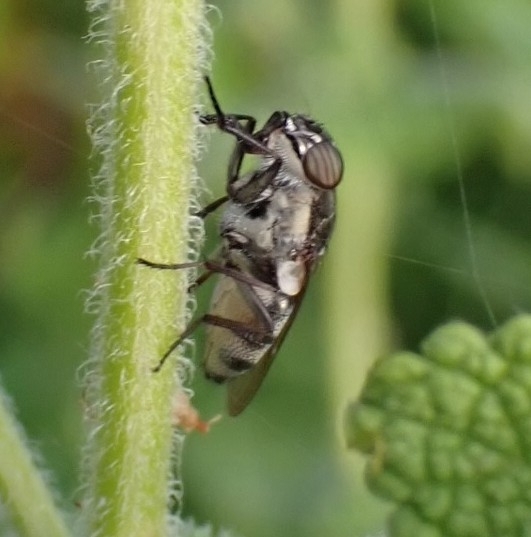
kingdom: Animalia
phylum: Arthropoda
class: Insecta
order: Diptera
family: Calliphoridae
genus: Stomorhina
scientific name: Stomorhina lunata
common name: Locust blowfly
